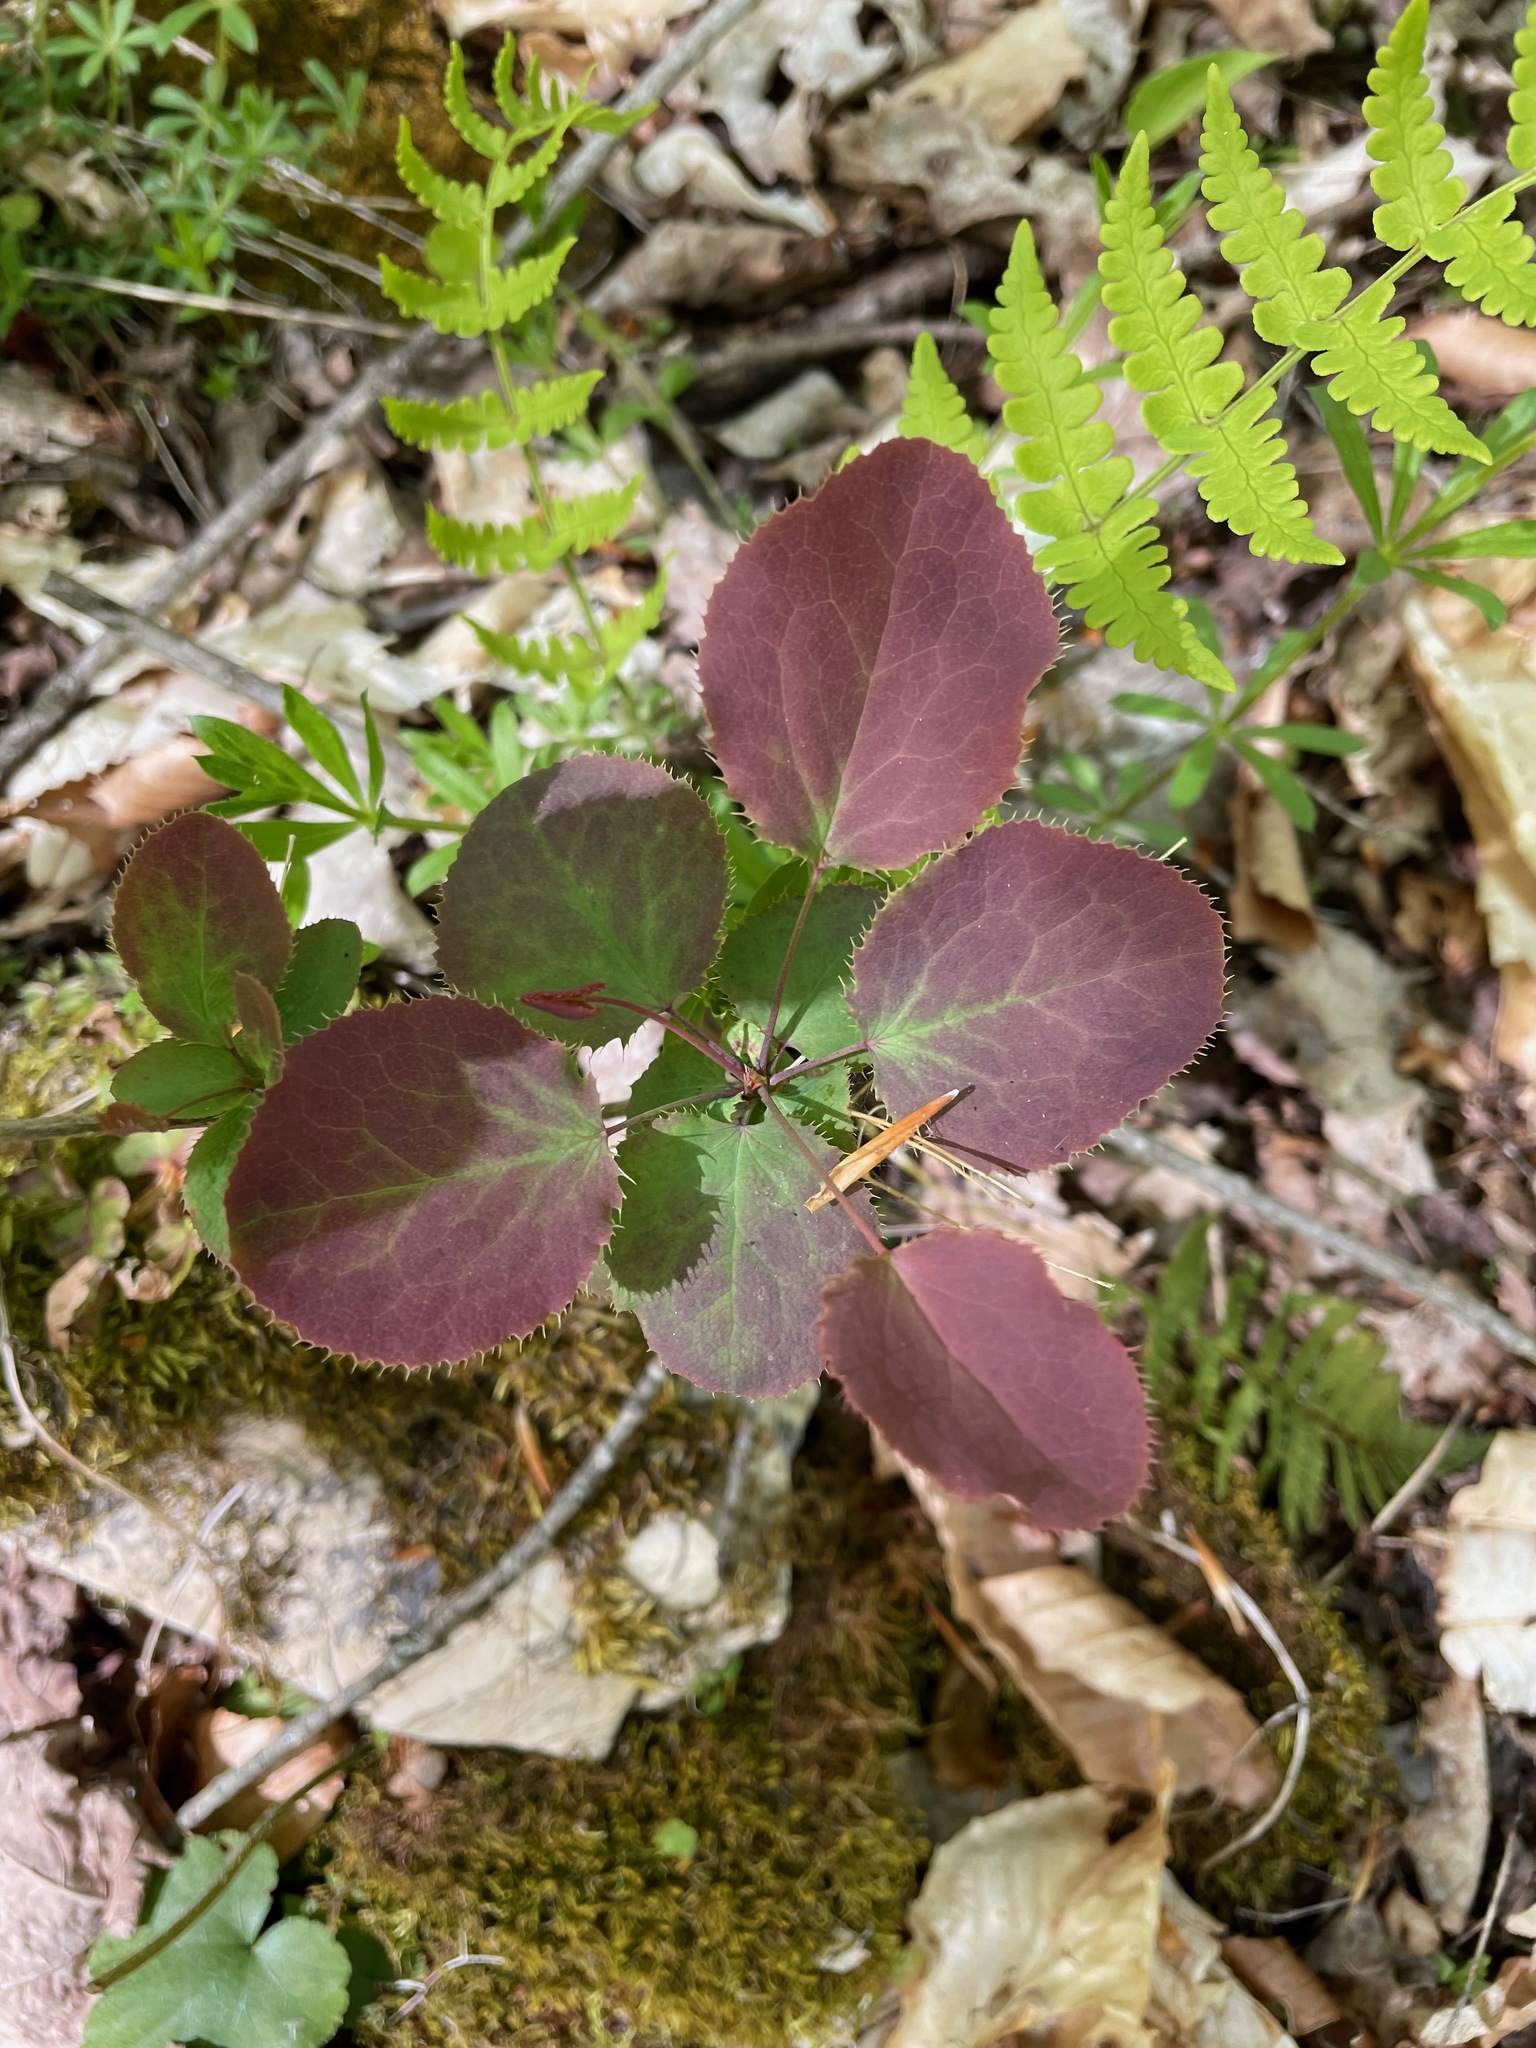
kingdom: Plantae
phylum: Tracheophyta
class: Magnoliopsida
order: Ranunculales
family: Berberidaceae
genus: Berberis
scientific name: Berberis vulgaris
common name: Barberry
